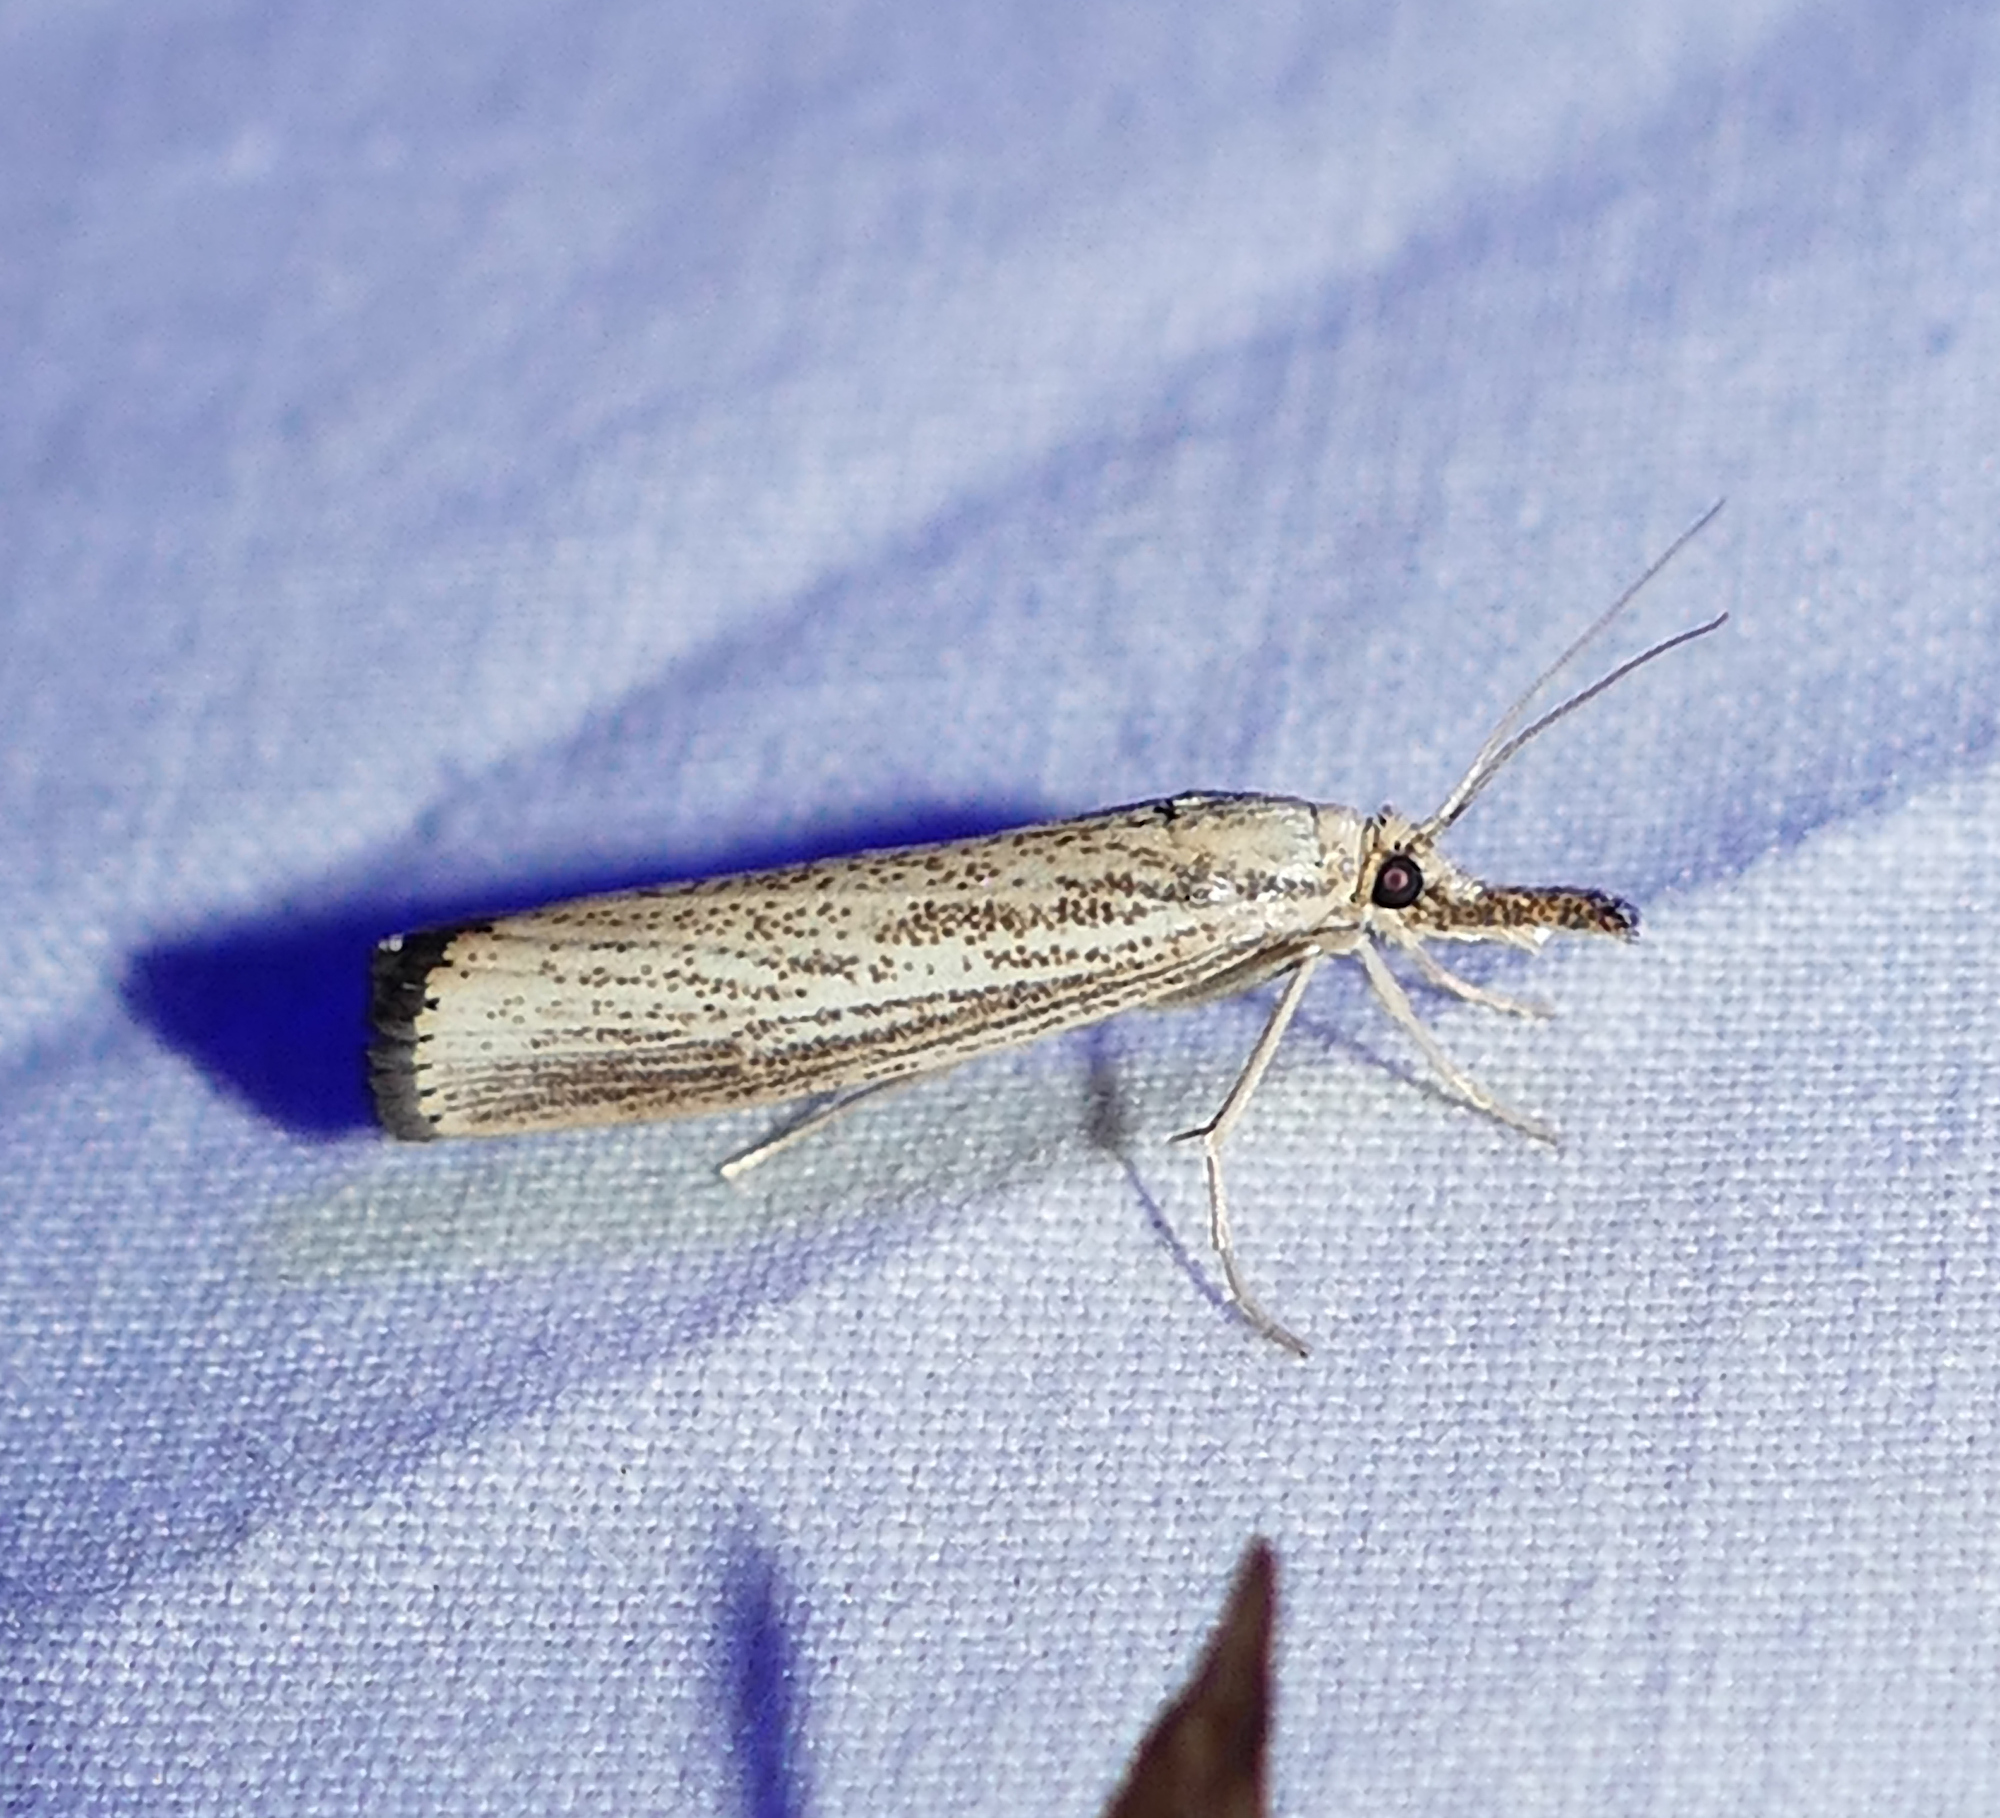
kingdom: Animalia
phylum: Arthropoda
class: Insecta
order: Lepidoptera
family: Crambidae
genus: Agriphila
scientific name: Agriphila vulgivagellus
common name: Vagabond crambus moth
